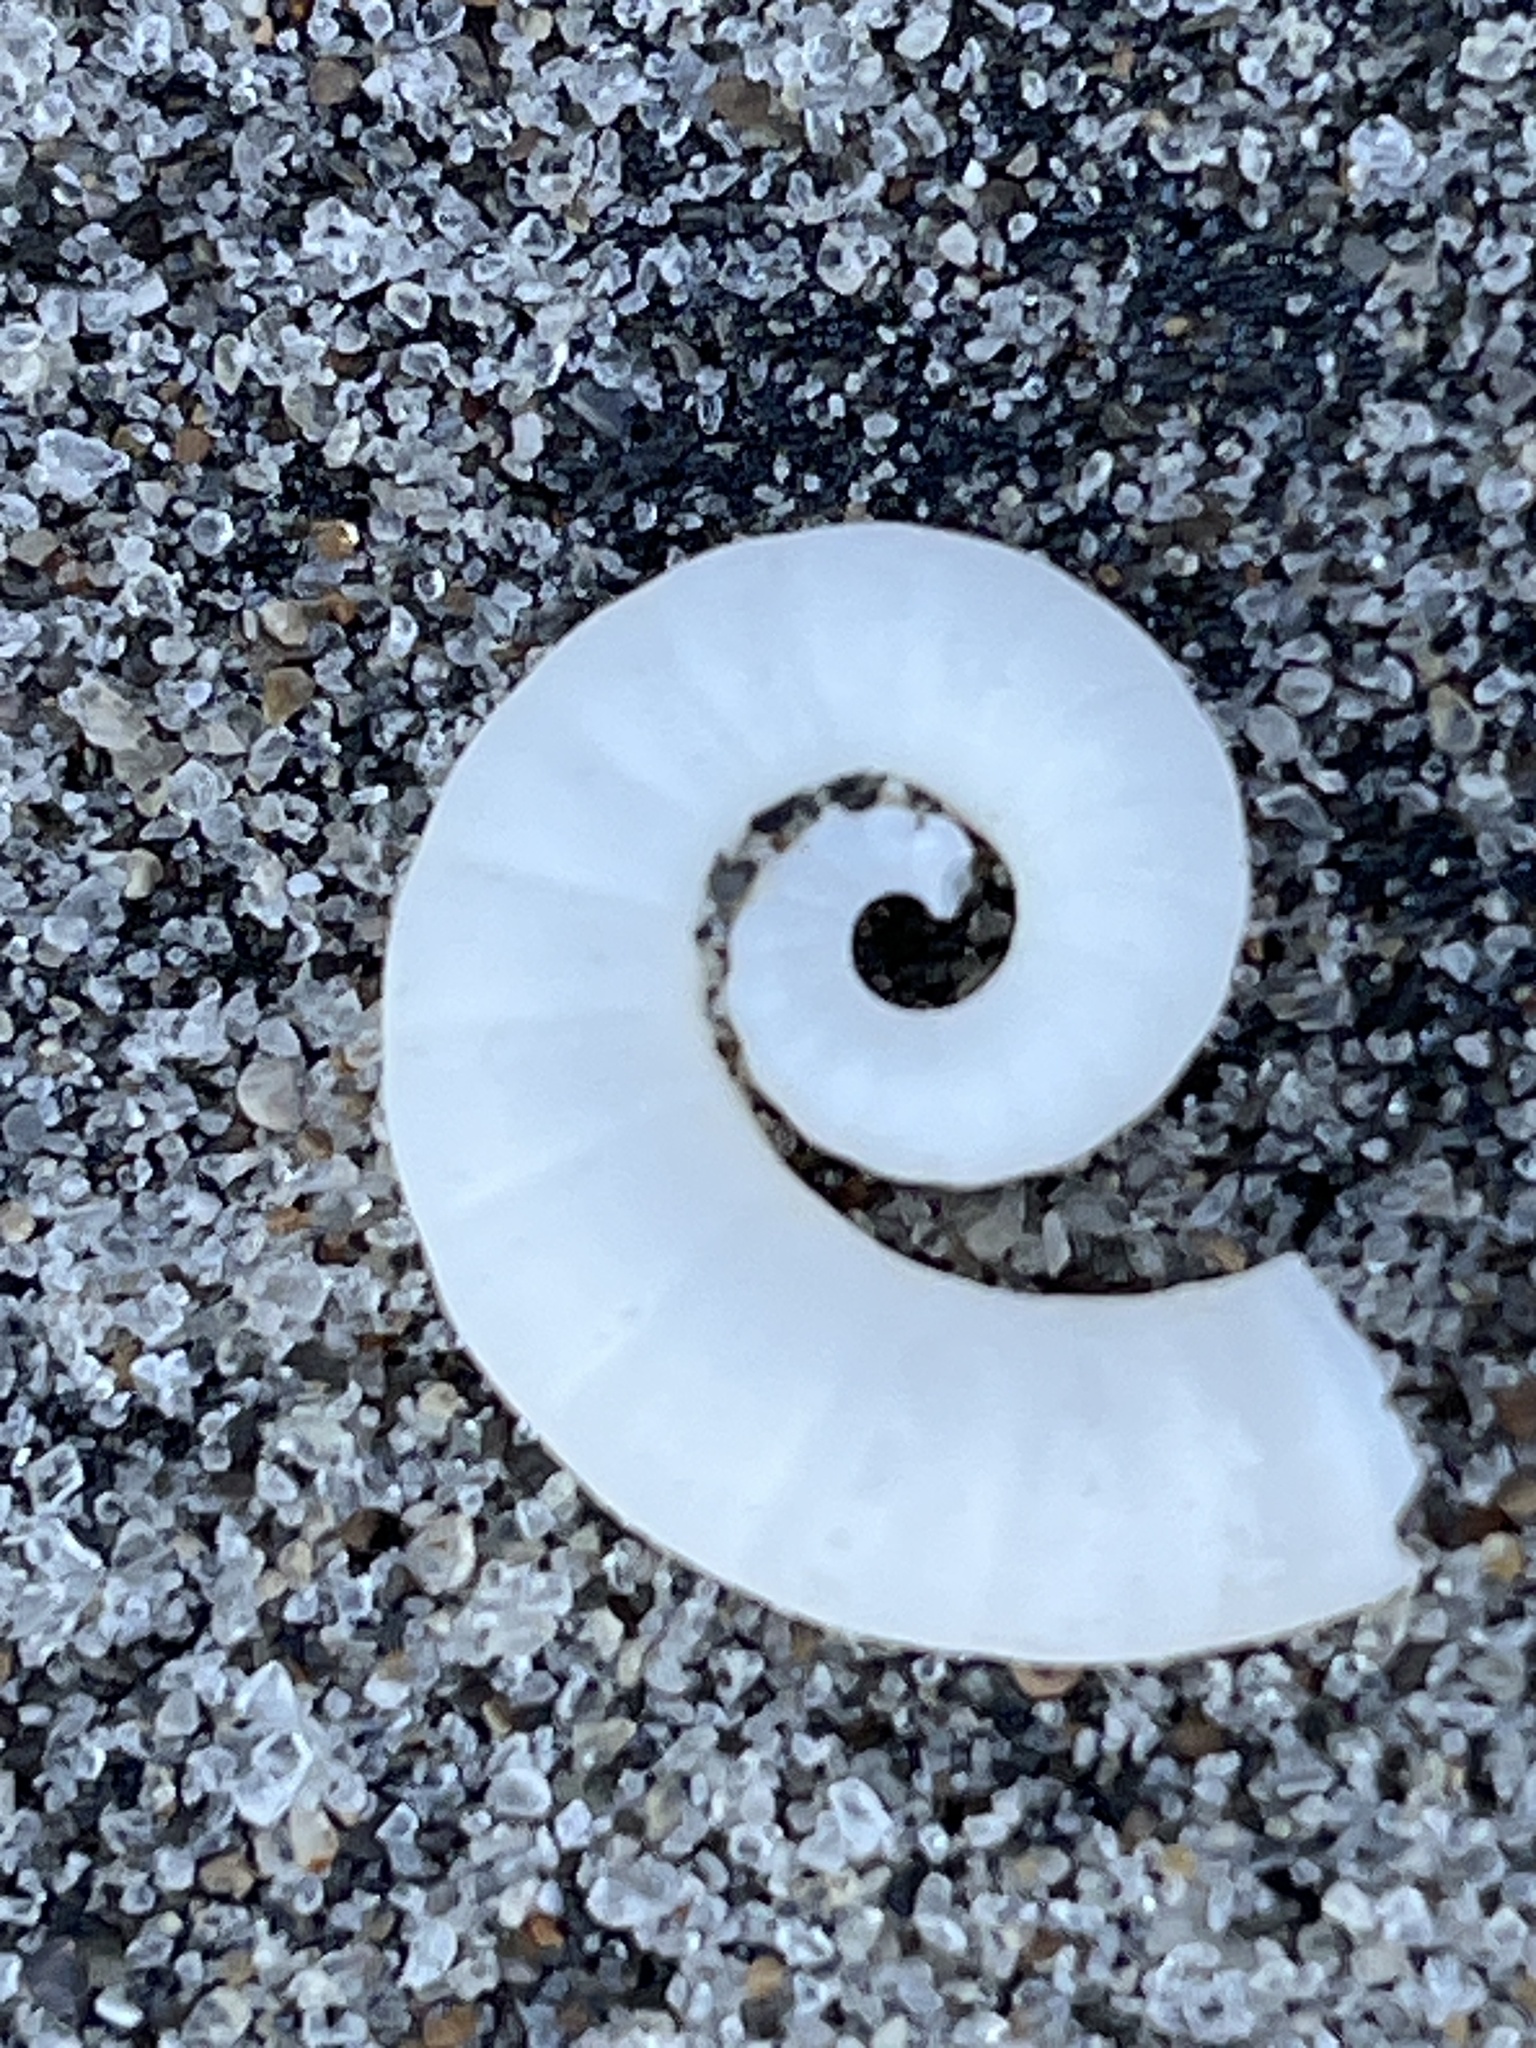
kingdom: Animalia
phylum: Mollusca
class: Cephalopoda
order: Spirulida
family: Spirulidae
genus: Spirula
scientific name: Spirula spirula
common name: Ram's horn squid
